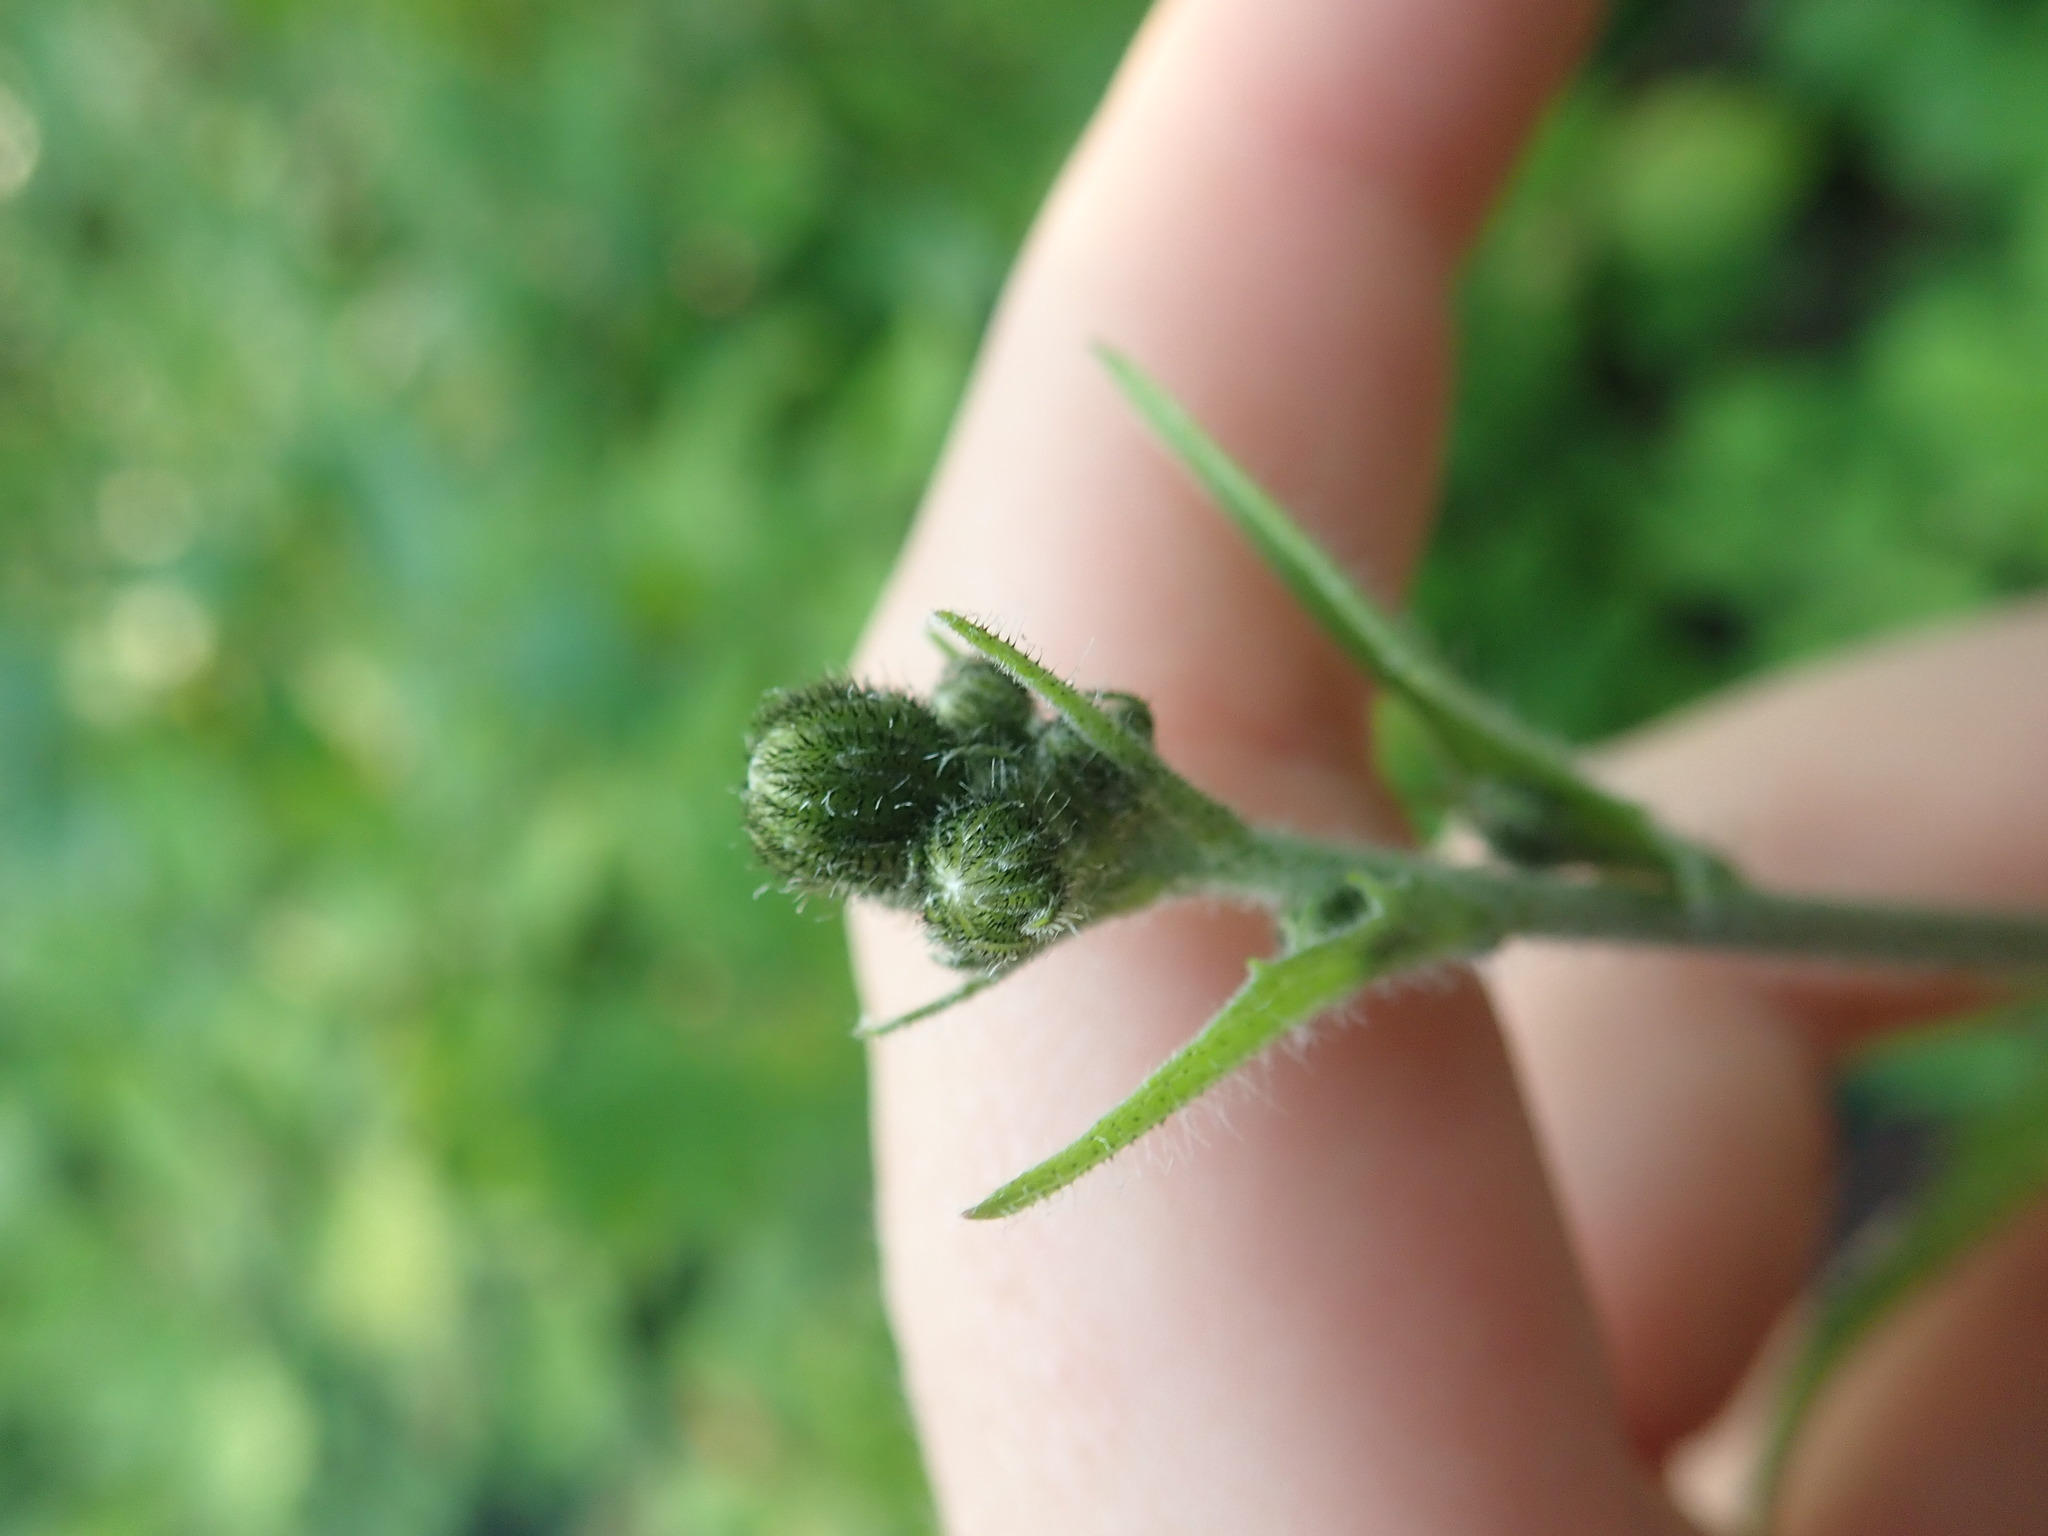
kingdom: Plantae
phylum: Tracheophyta
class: Magnoliopsida
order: Asterales
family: Asteraceae
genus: Hieracium
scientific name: Hieracium lachenalii
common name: Common hawkweed
